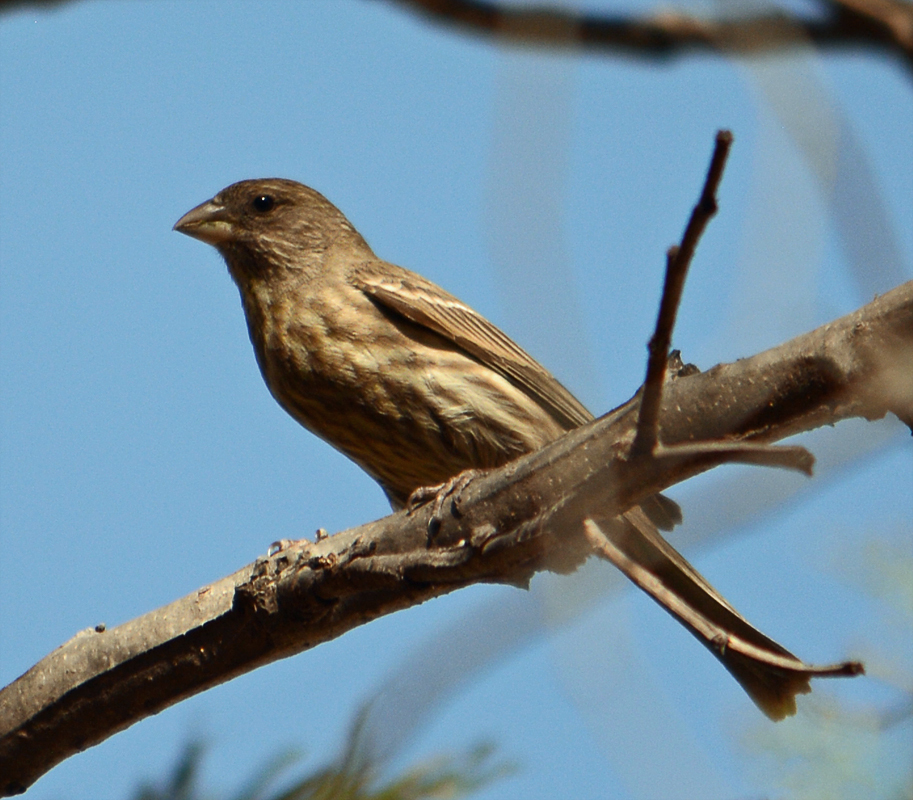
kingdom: Animalia
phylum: Chordata
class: Aves
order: Passeriformes
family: Fringillidae
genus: Haemorhous
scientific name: Haemorhous mexicanus
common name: House finch
